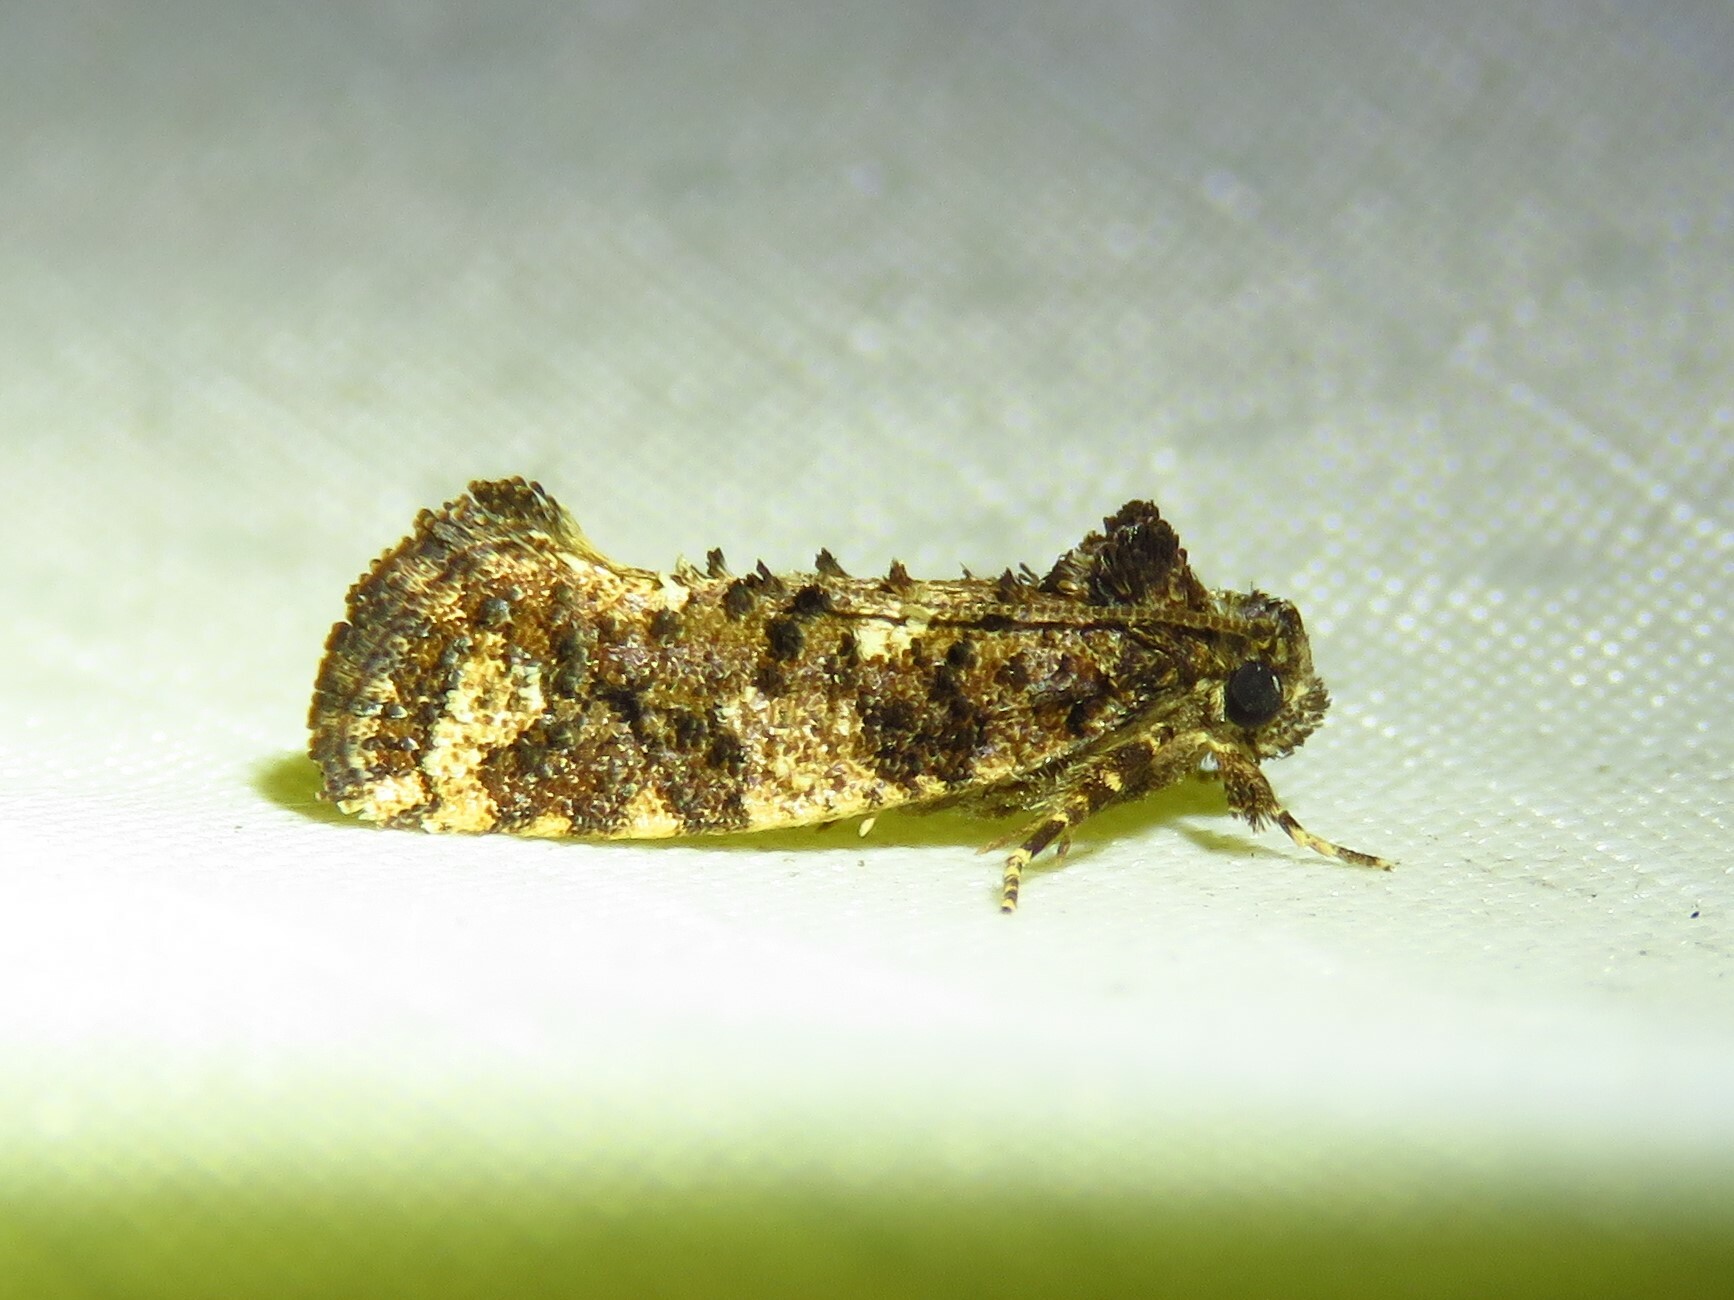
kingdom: Animalia
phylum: Arthropoda
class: Insecta
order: Lepidoptera
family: Tineidae
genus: Acrolophus
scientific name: Acrolophus cressoni
